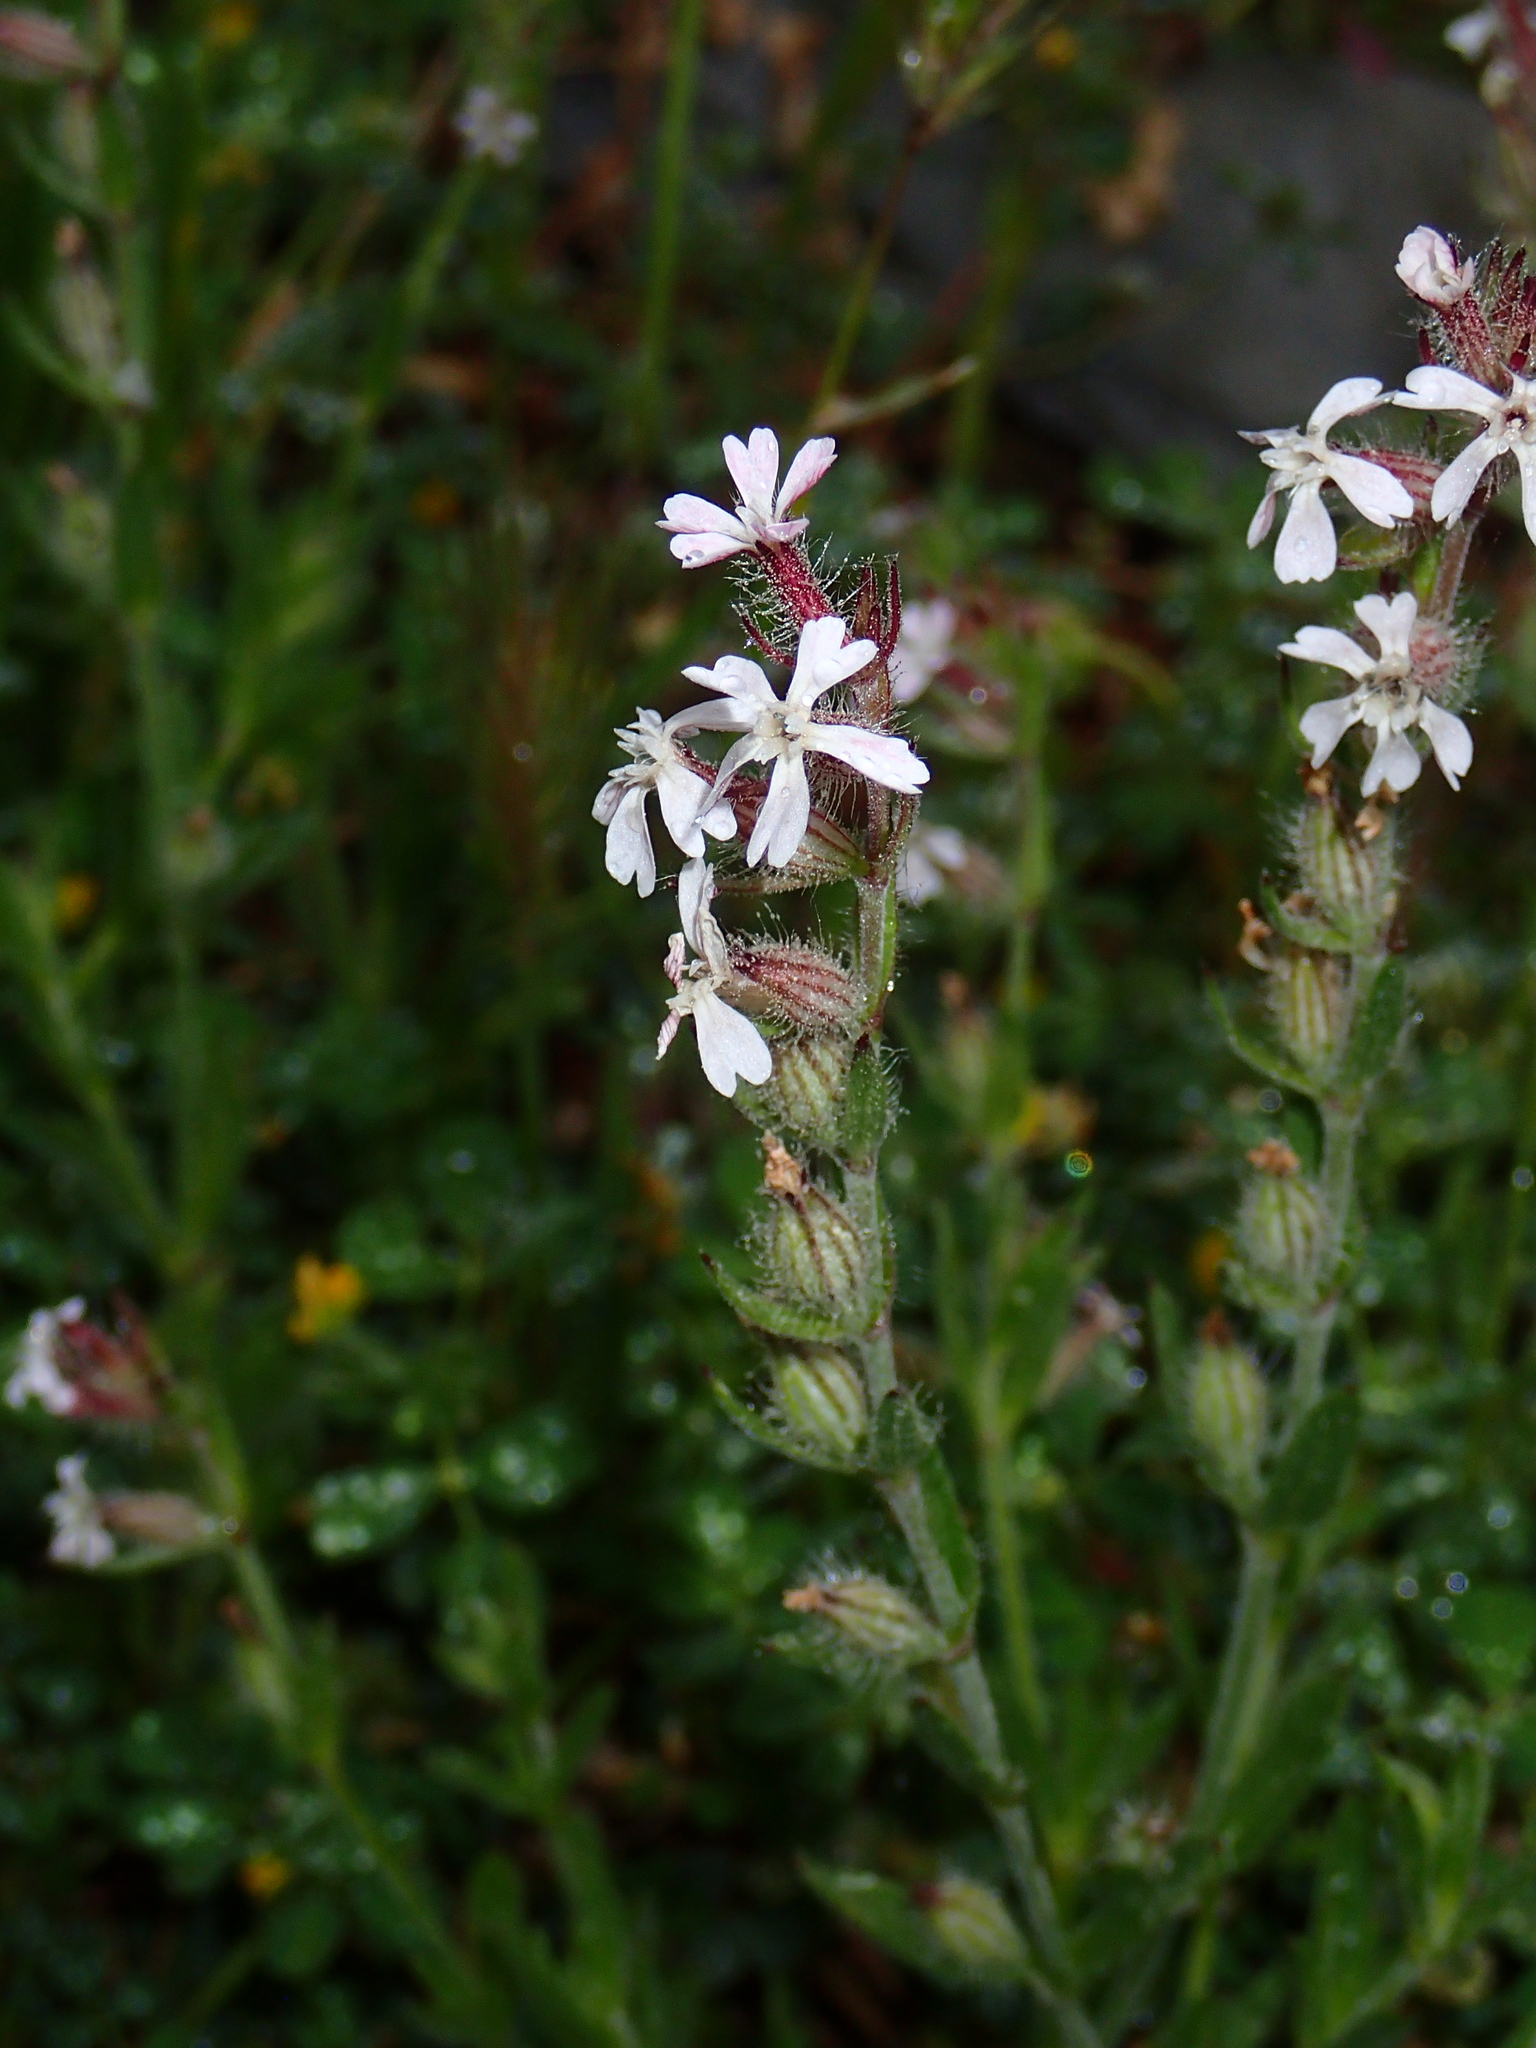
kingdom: Plantae
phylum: Tracheophyta
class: Magnoliopsida
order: Caryophyllales
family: Caryophyllaceae
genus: Silene
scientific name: Silene gallica
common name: Small-flowered catchfly
